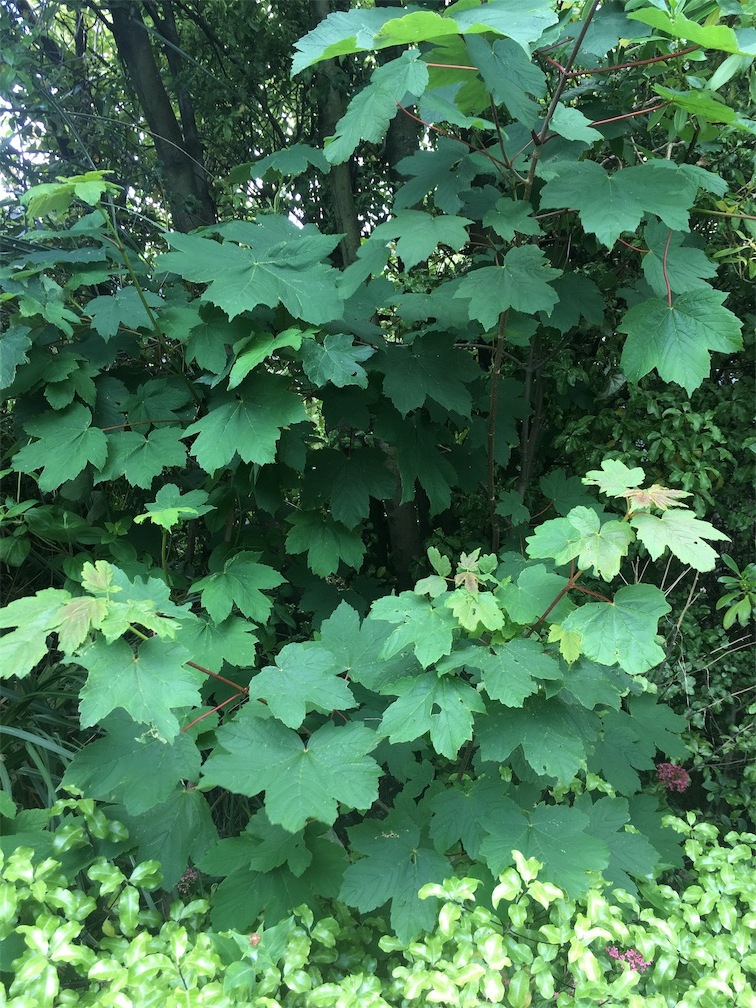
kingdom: Plantae
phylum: Tracheophyta
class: Magnoliopsida
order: Sapindales
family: Sapindaceae
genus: Acer
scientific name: Acer pseudoplatanus
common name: Sycamore
